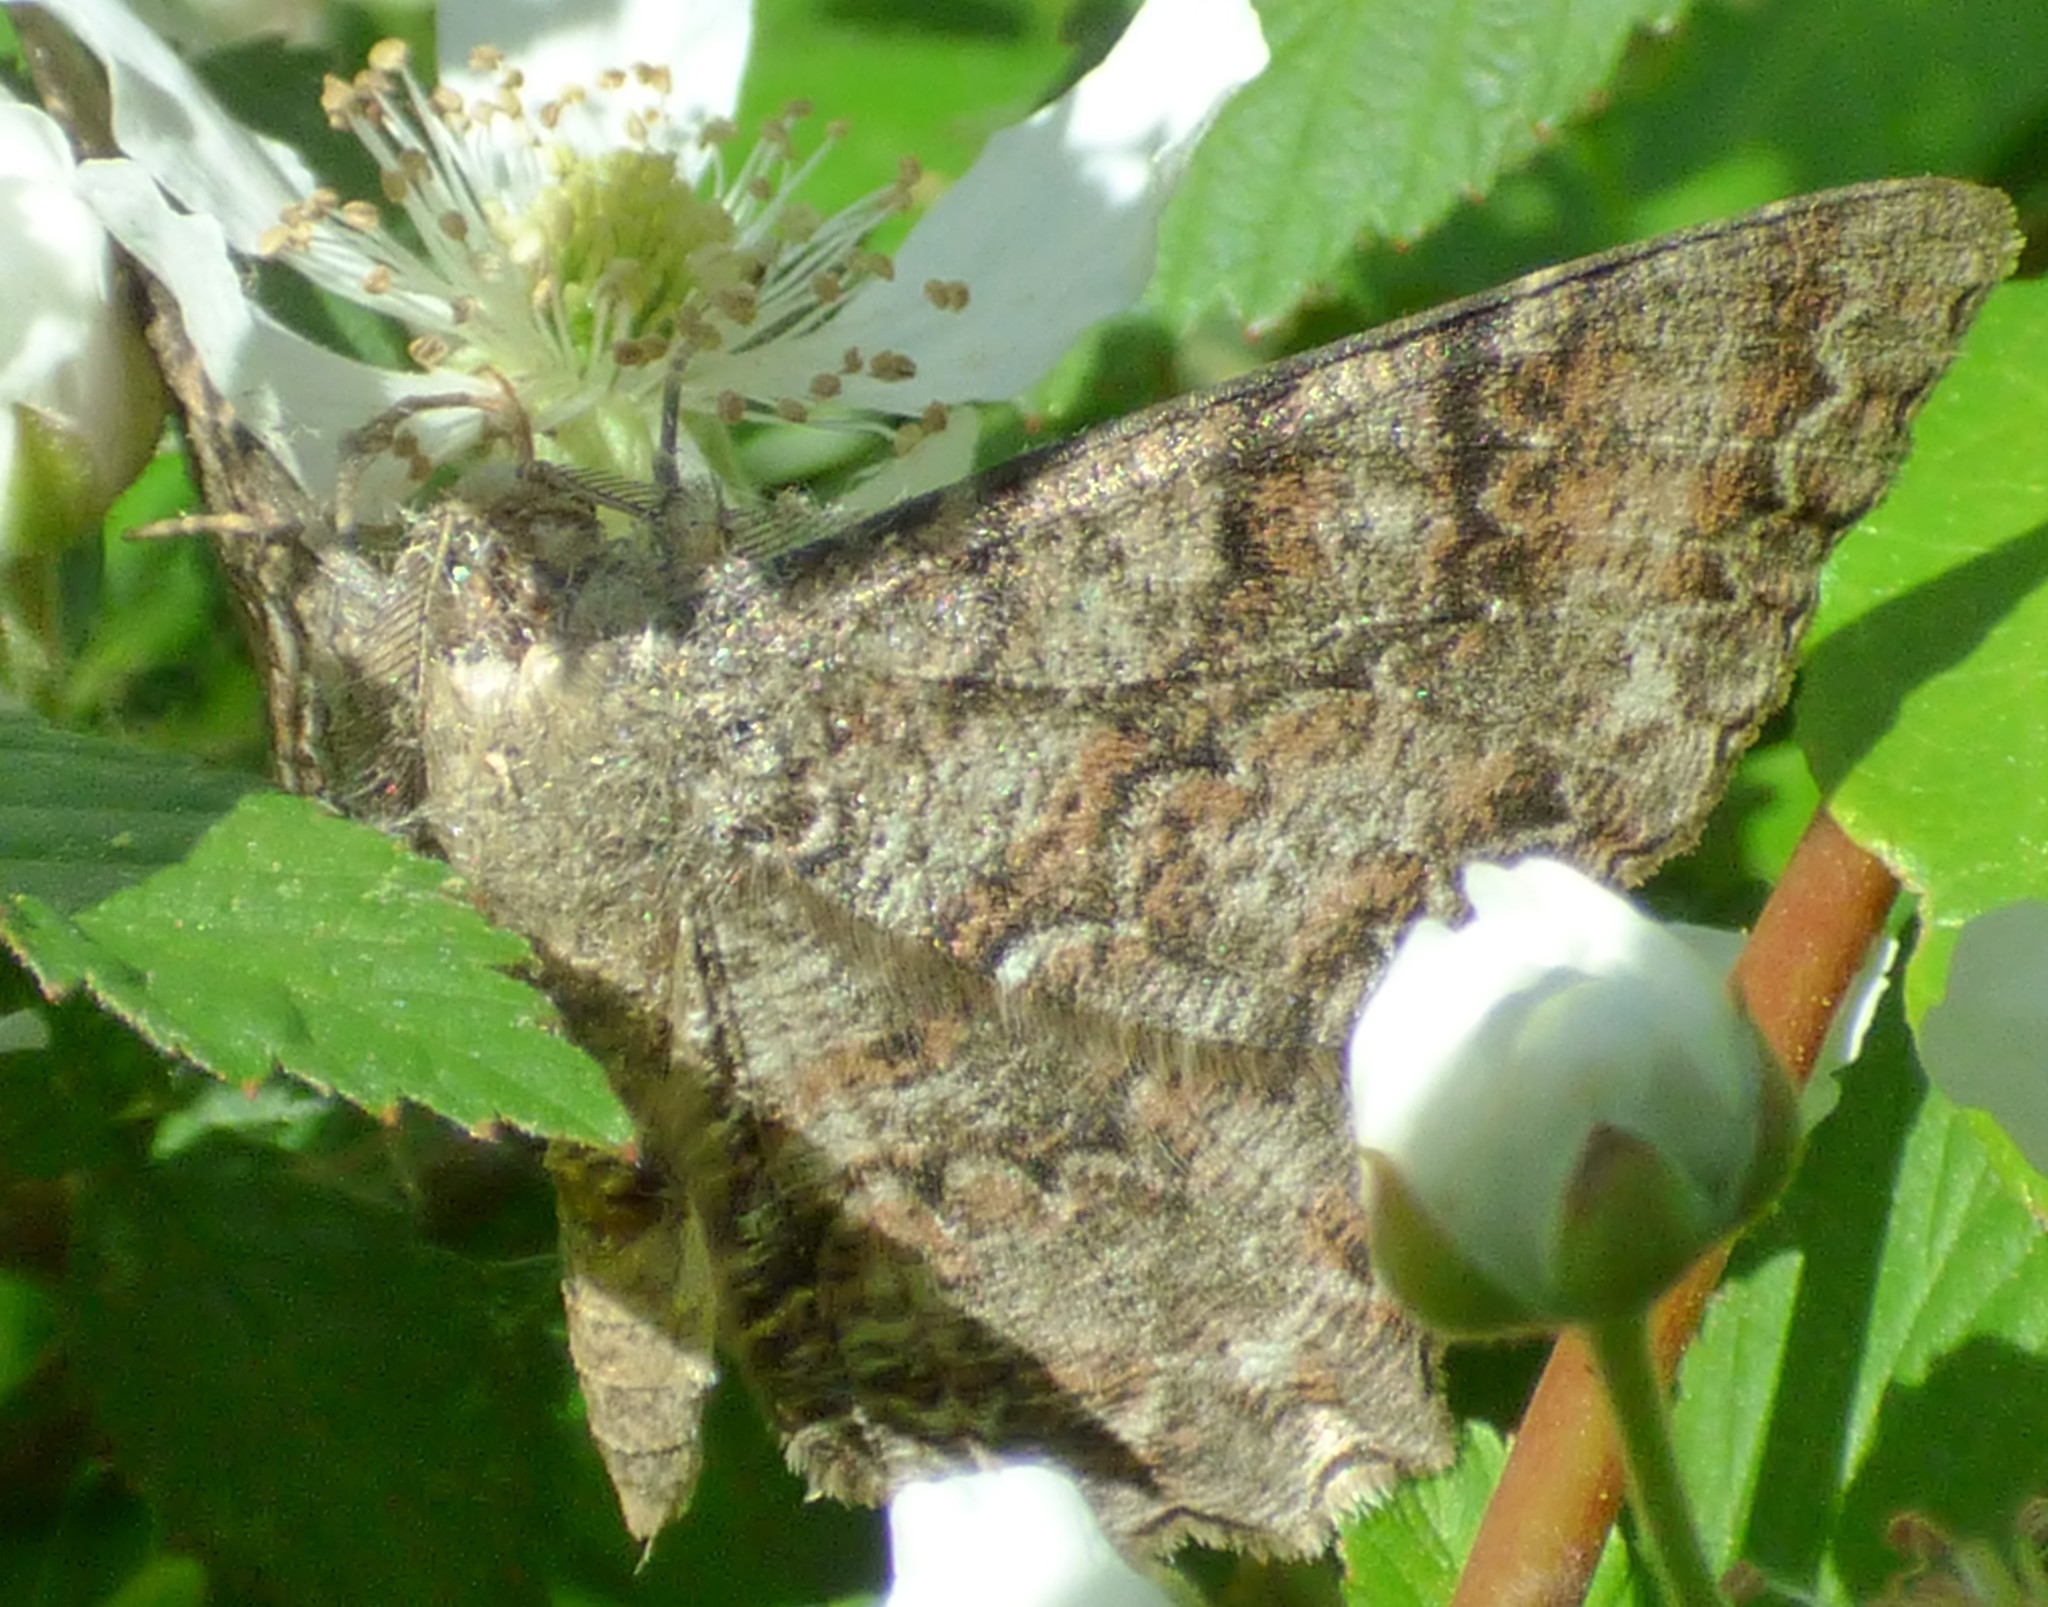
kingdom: Animalia
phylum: Arthropoda
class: Insecta
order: Lepidoptera
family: Geometridae
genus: Epimecis
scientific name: Epimecis hortaria
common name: Tulip-tree beauty
